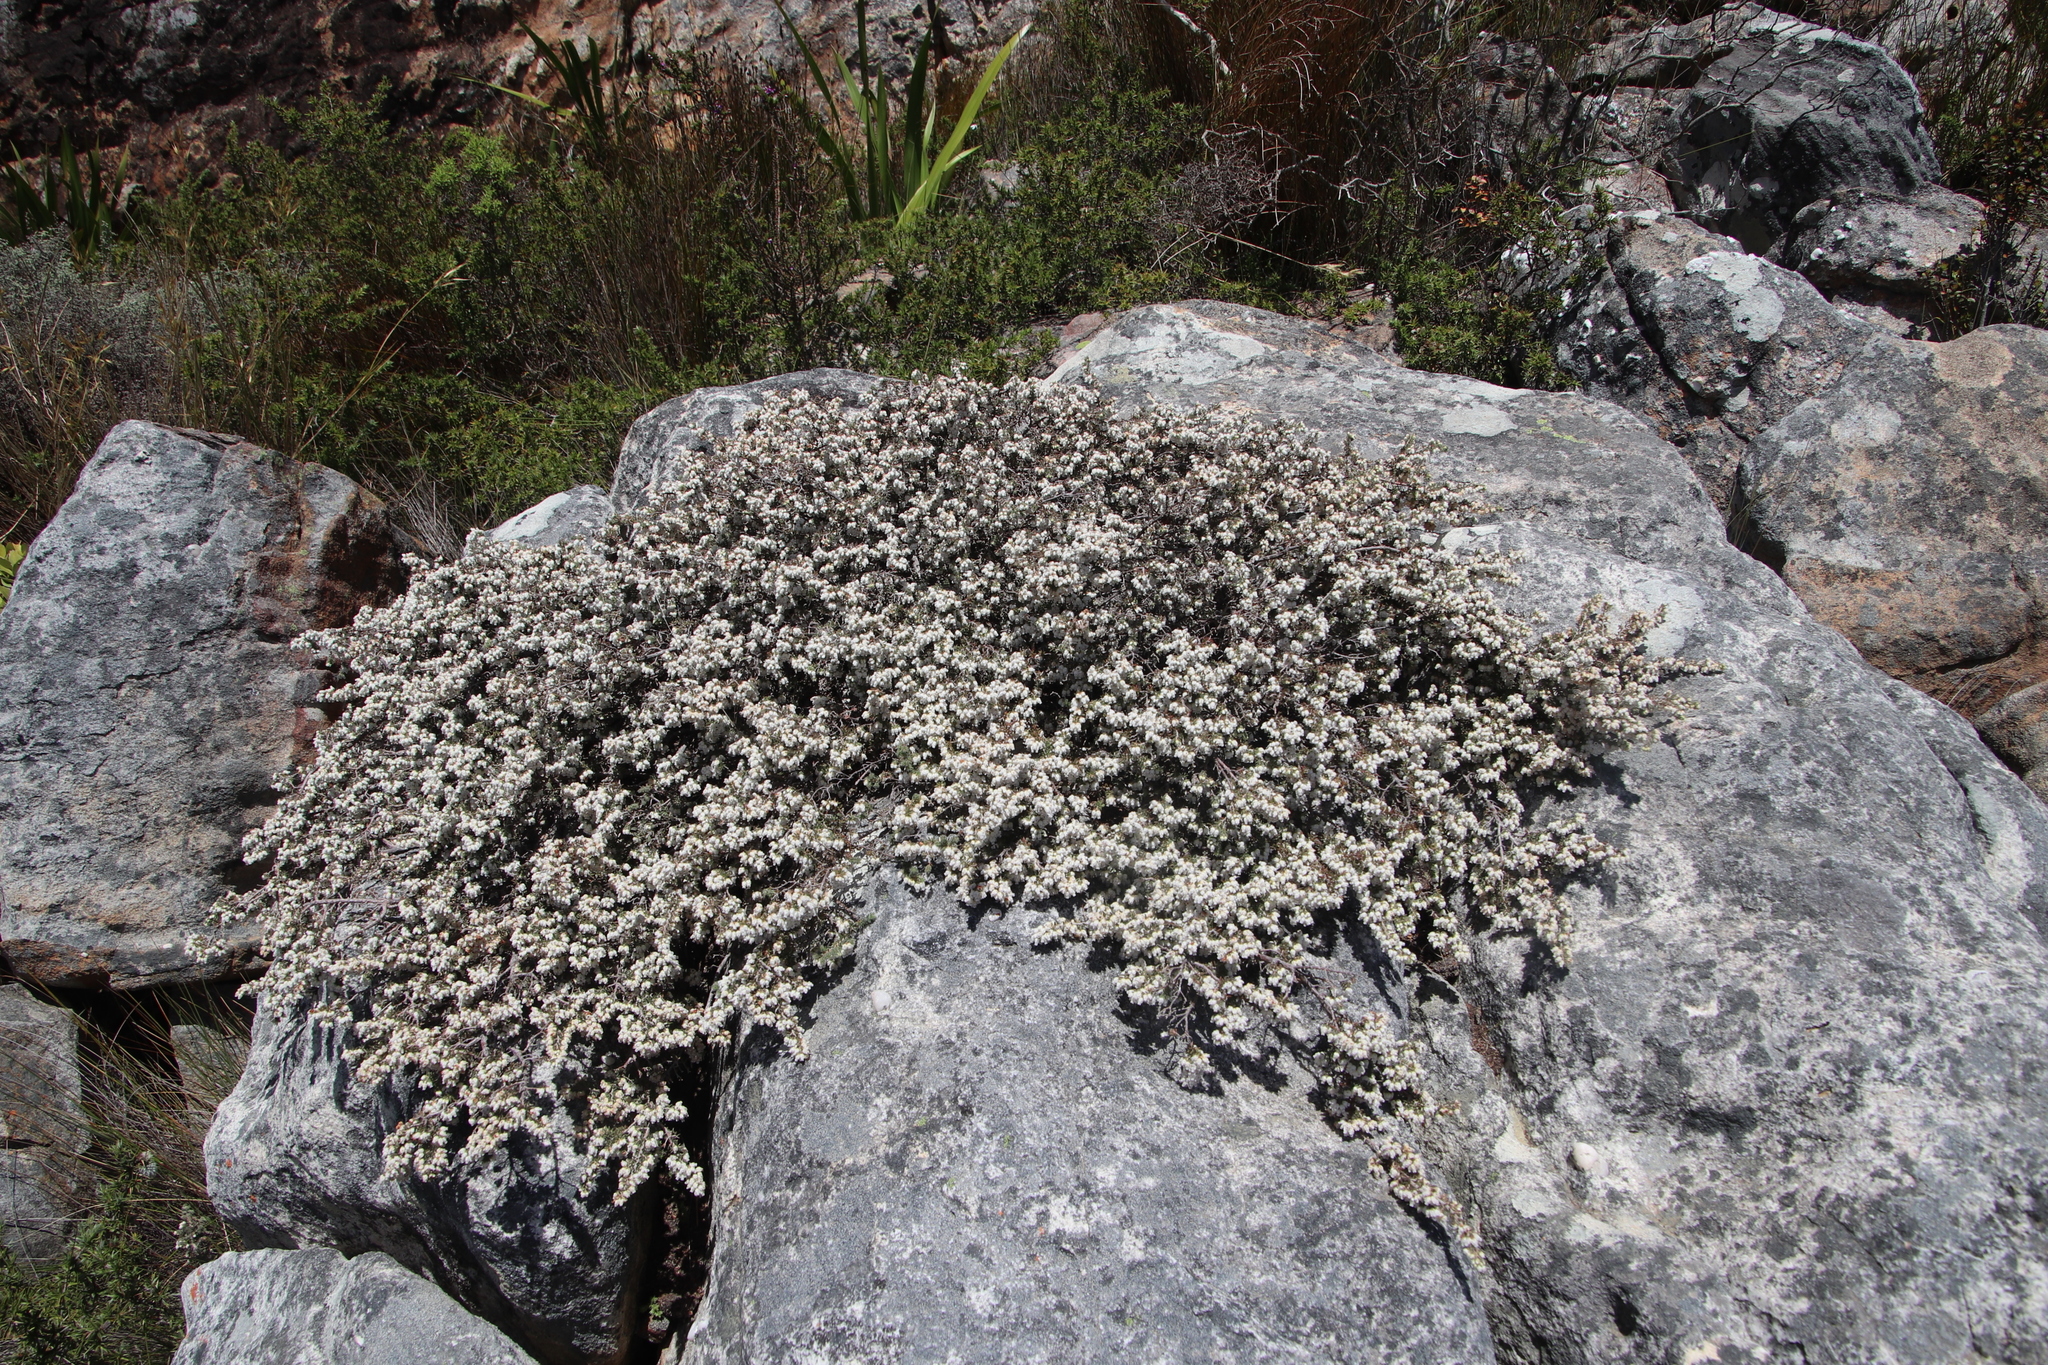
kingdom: Plantae
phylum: Tracheophyta
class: Magnoliopsida
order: Ericales
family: Ericaceae
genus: Erica
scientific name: Erica totta
